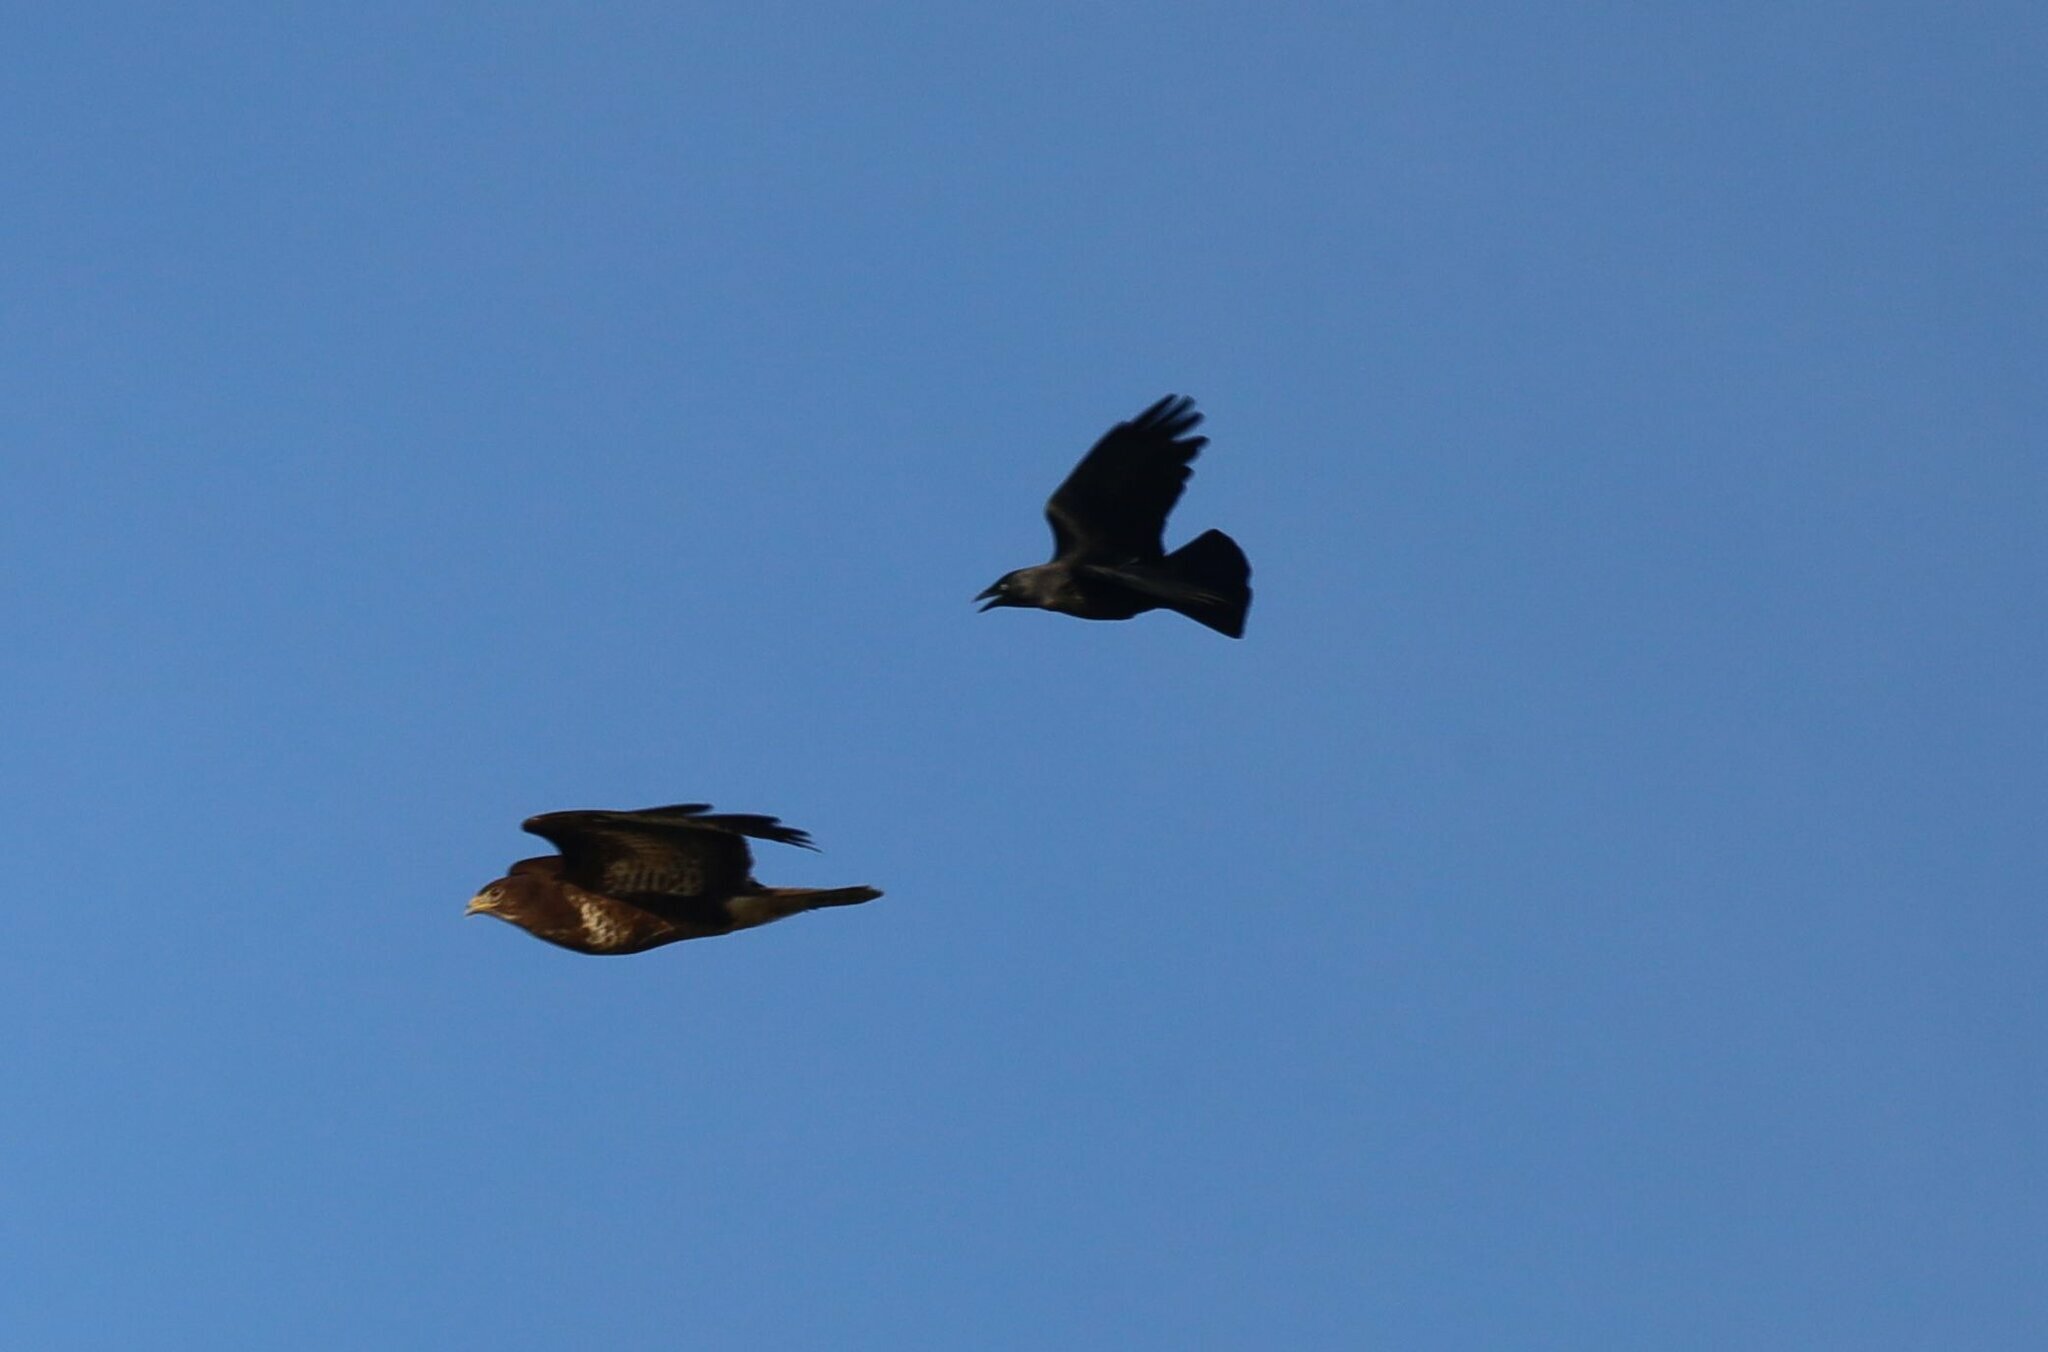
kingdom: Animalia
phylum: Chordata
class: Aves
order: Passeriformes
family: Corvidae
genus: Coloeus
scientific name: Coloeus monedula
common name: Western jackdaw
